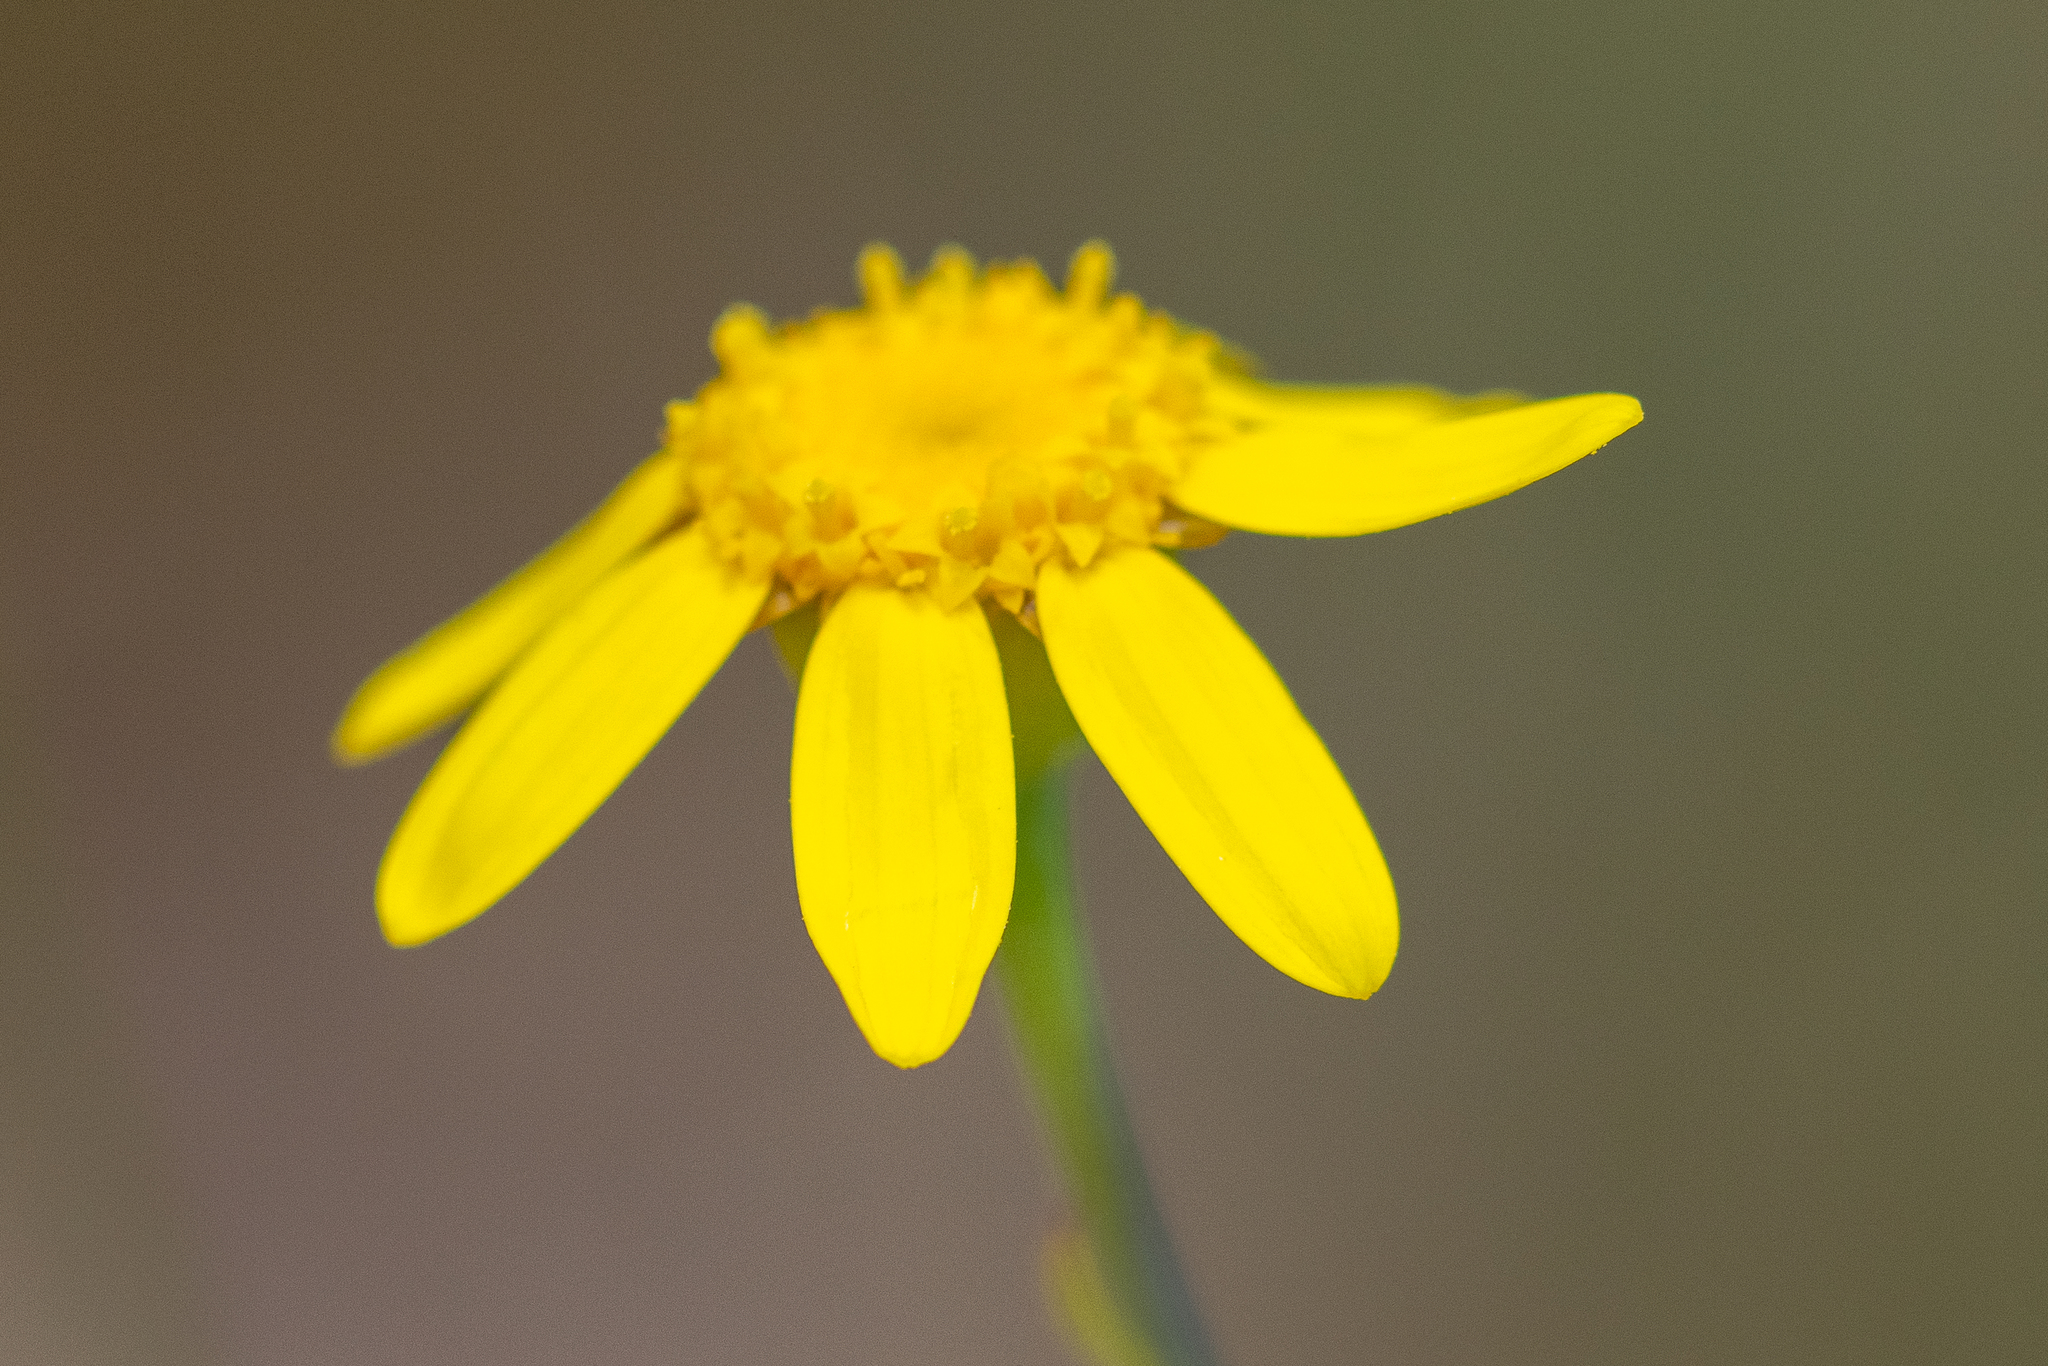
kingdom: Plantae
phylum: Tracheophyta
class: Magnoliopsida
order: Asterales
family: Asteraceae
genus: Othonna
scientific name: Othonna quinquedentata
